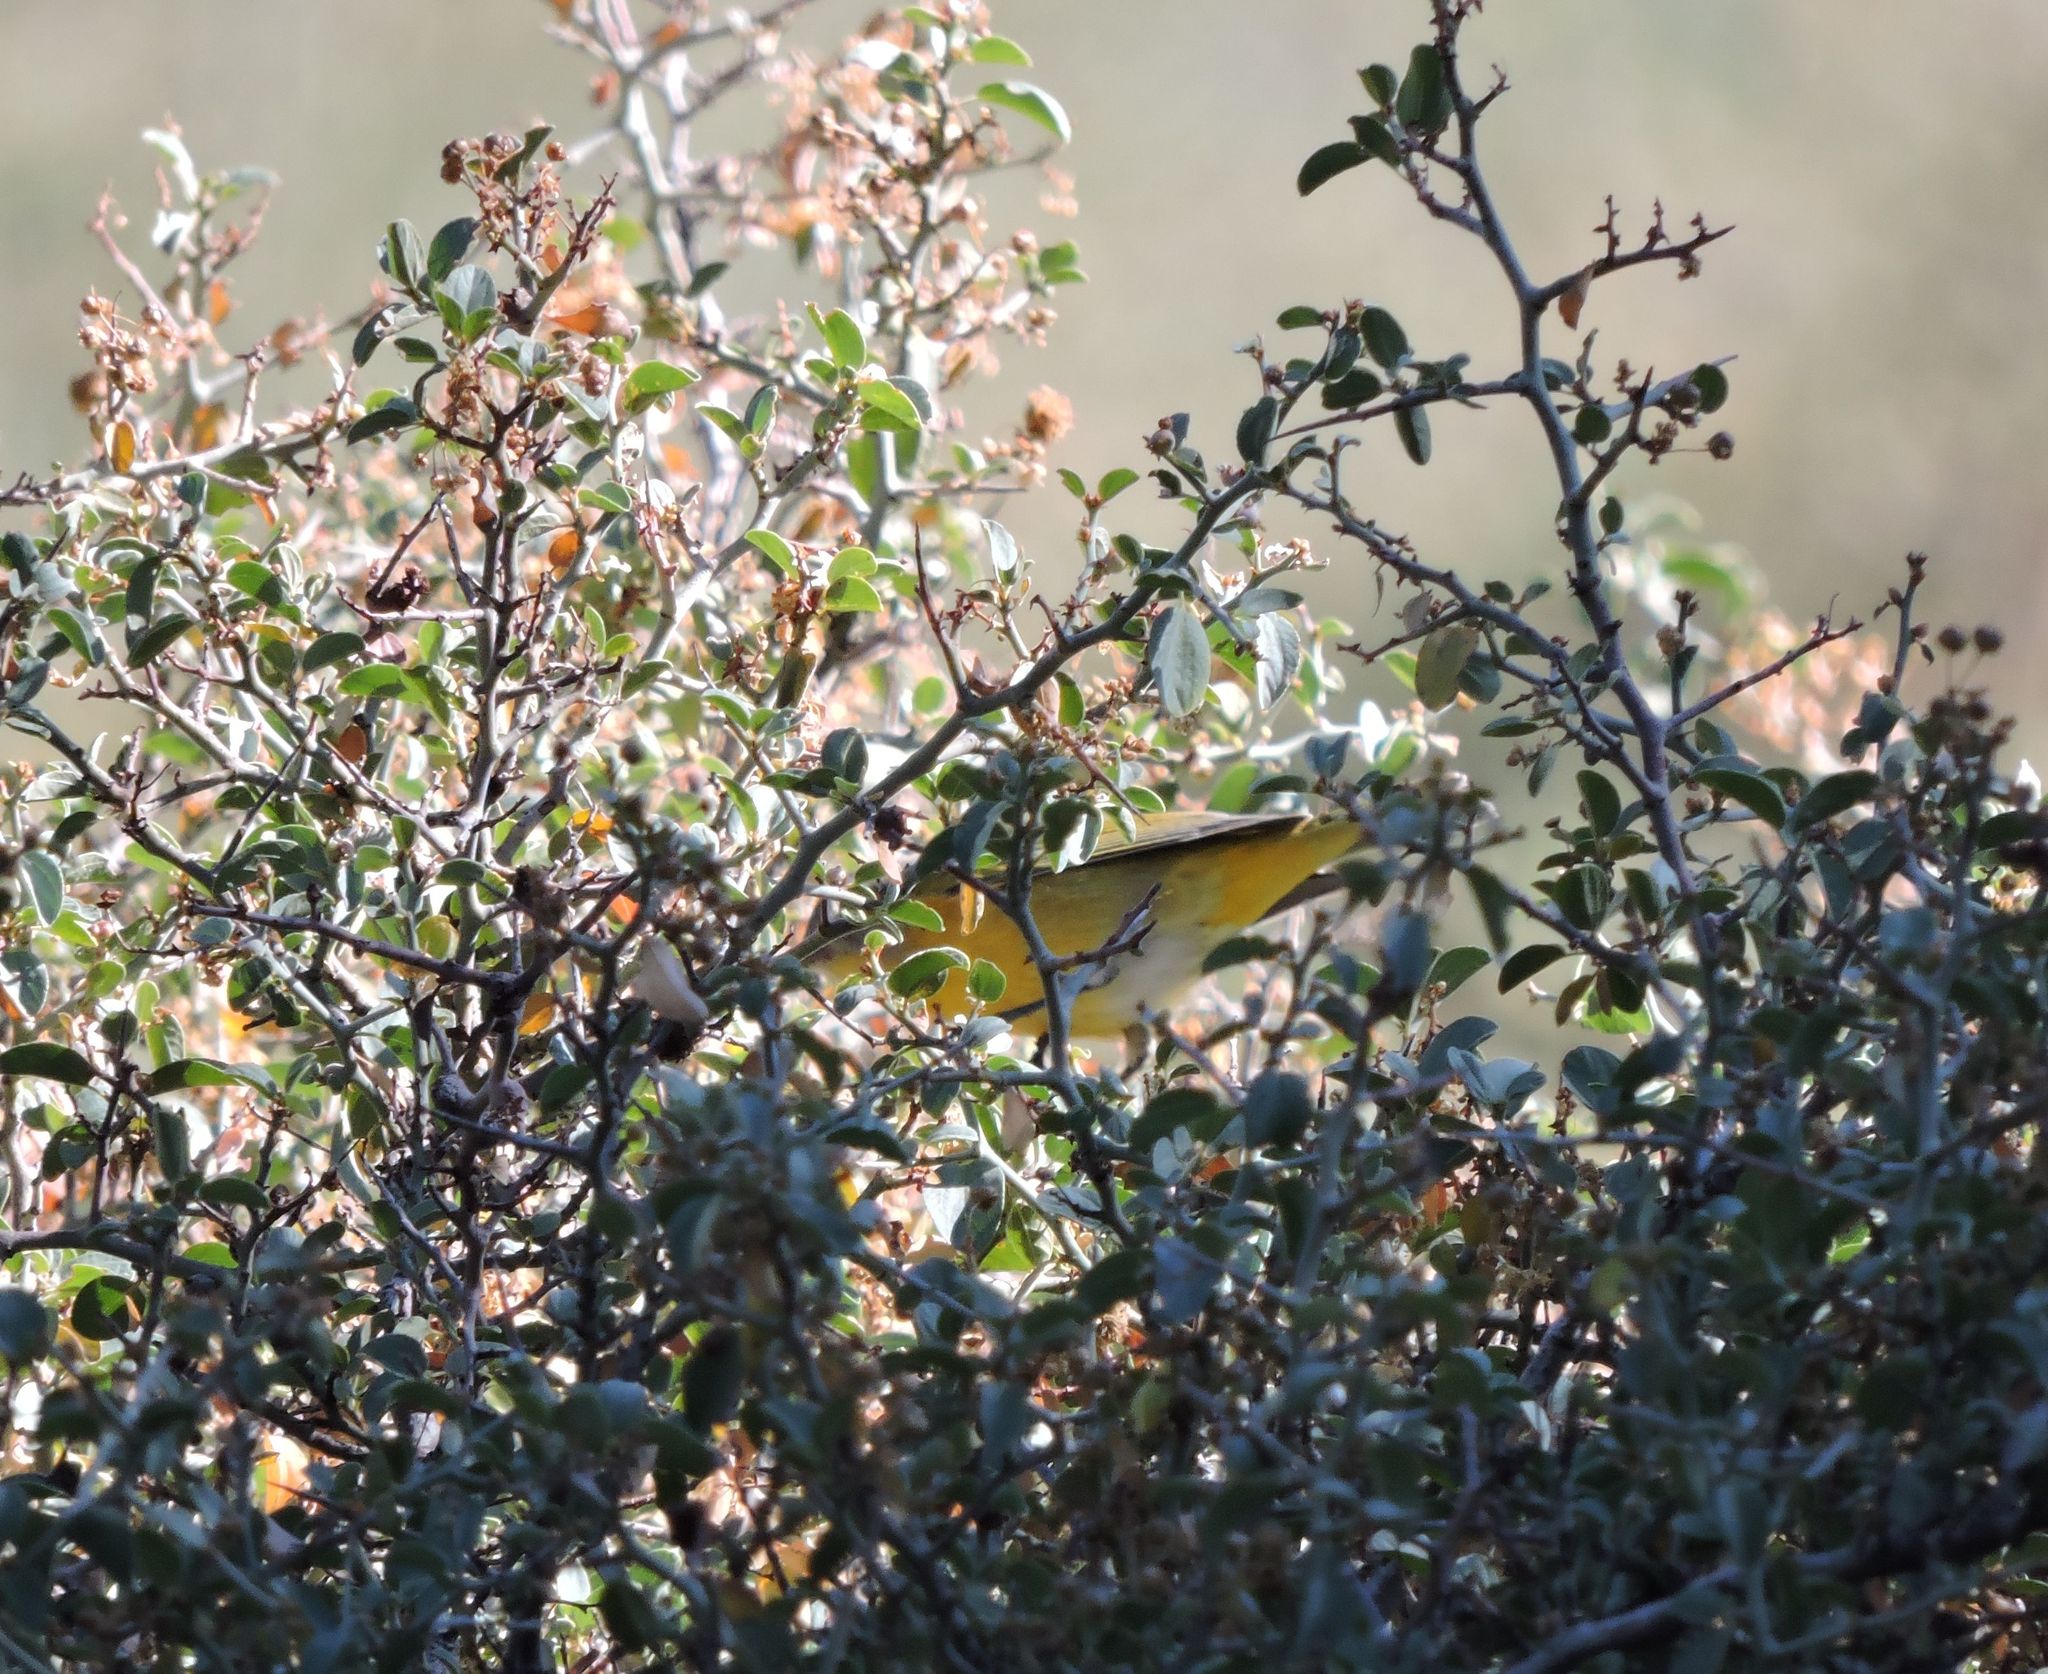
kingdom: Animalia
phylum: Chordata
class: Aves
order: Passeriformes
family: Parulidae
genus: Leiothlypis
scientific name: Leiothlypis ruficapilla
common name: Nashville warbler
